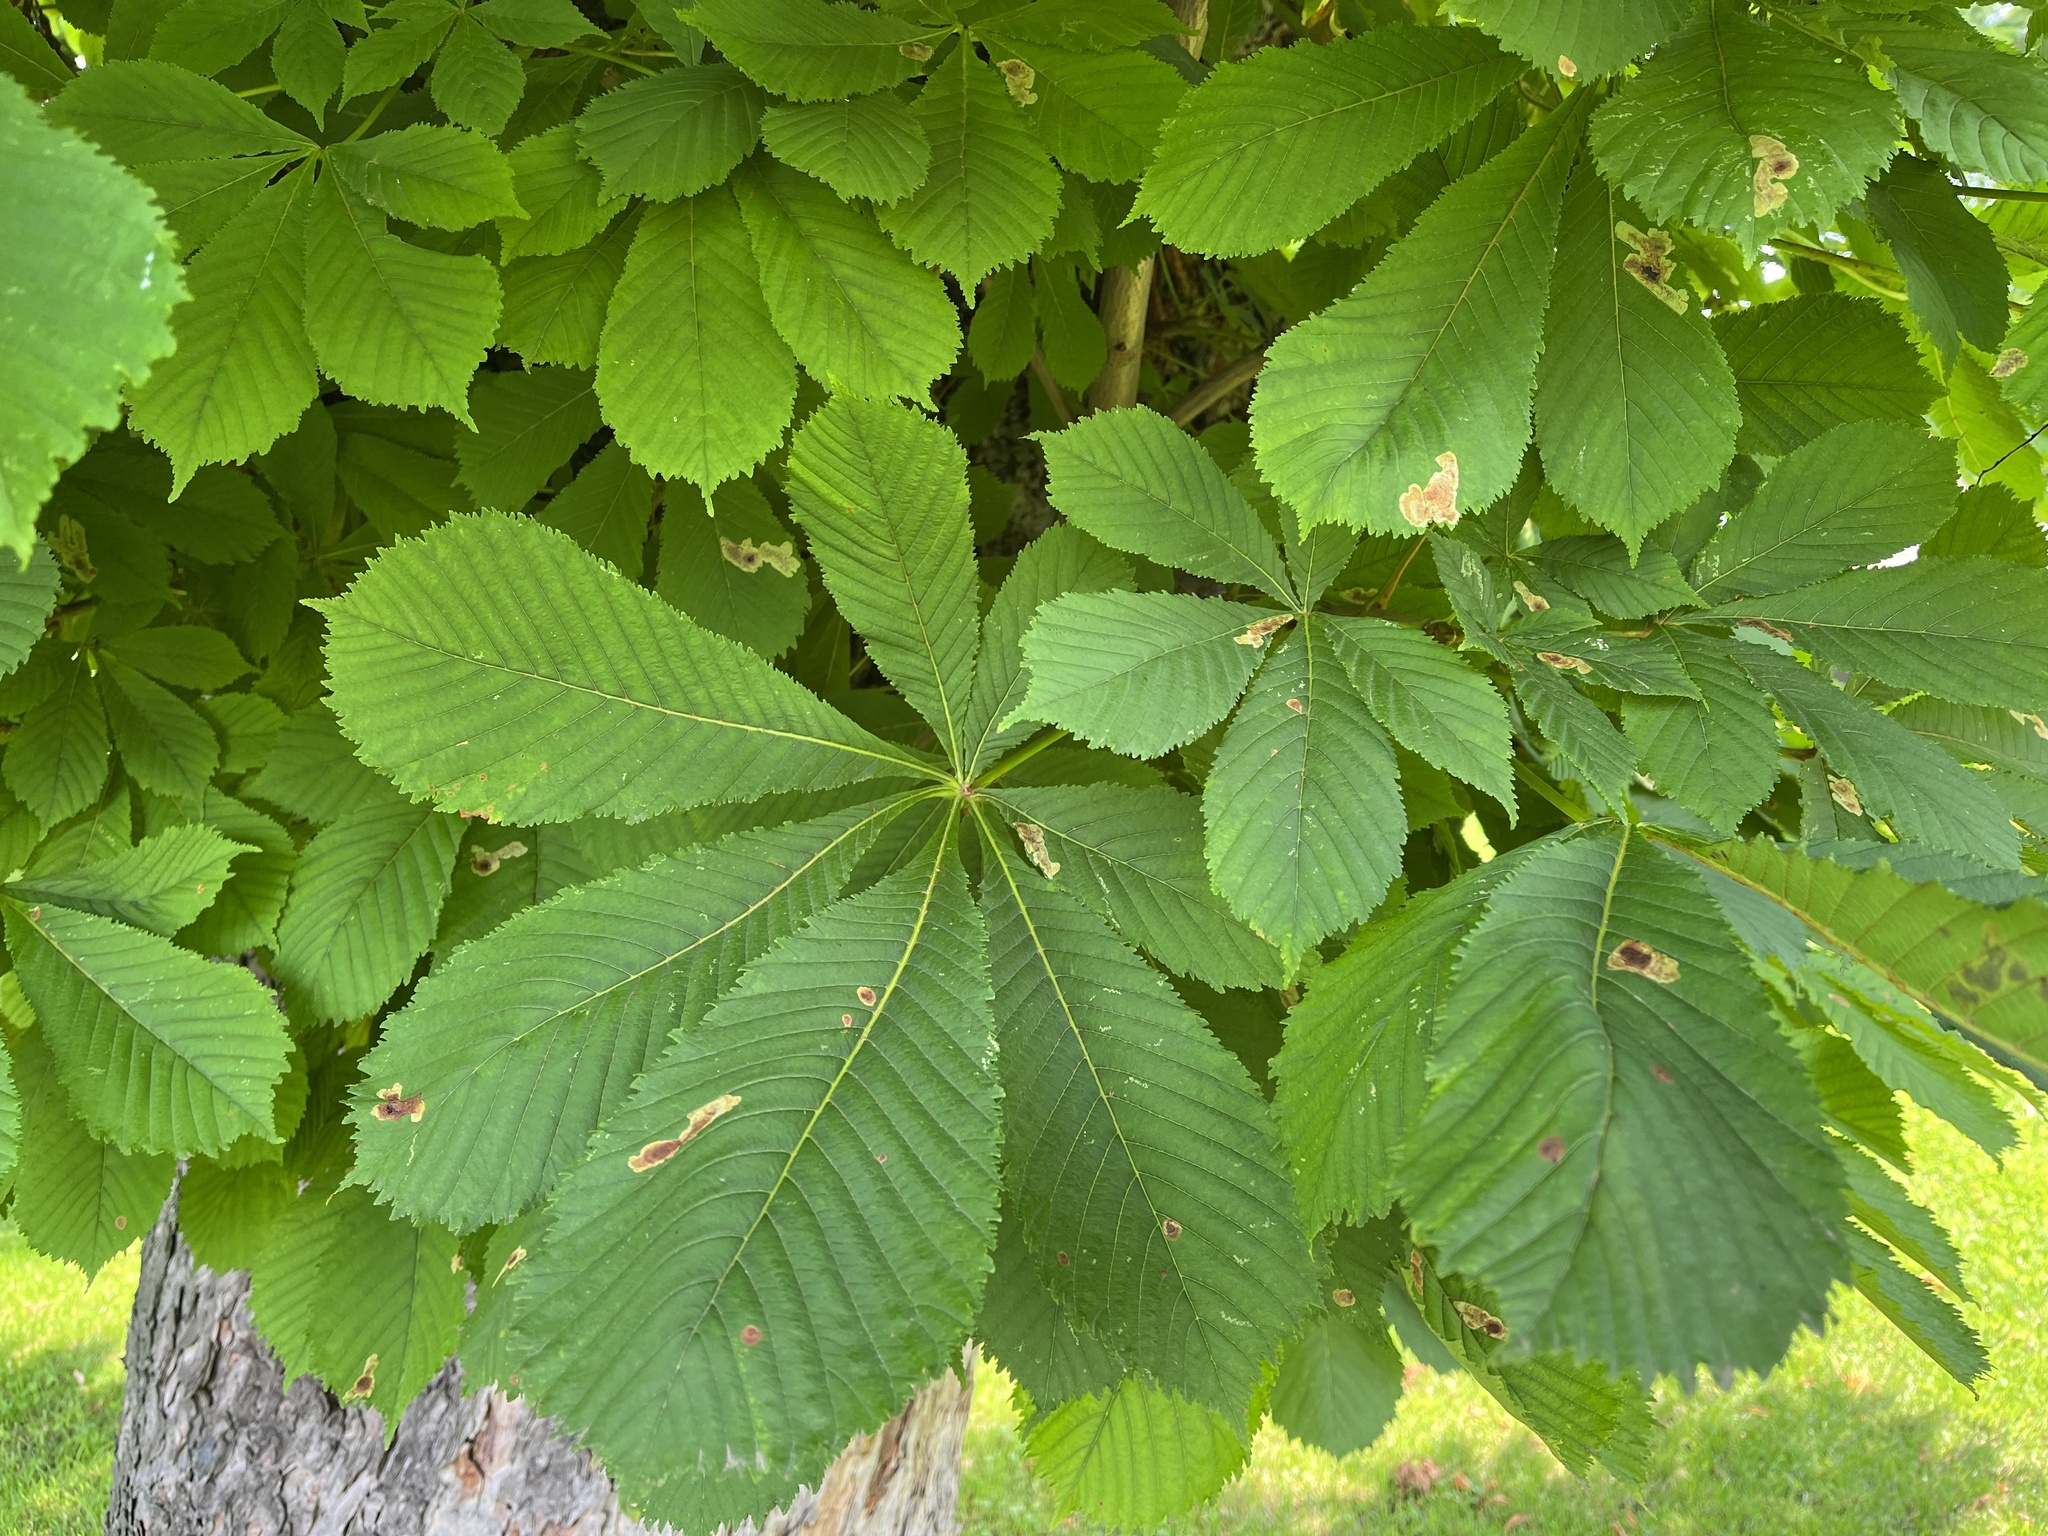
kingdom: Animalia
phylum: Arthropoda
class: Insecta
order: Lepidoptera
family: Gracillariidae
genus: Cameraria
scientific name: Cameraria ohridella
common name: Horse-chestnut leaf-miner
